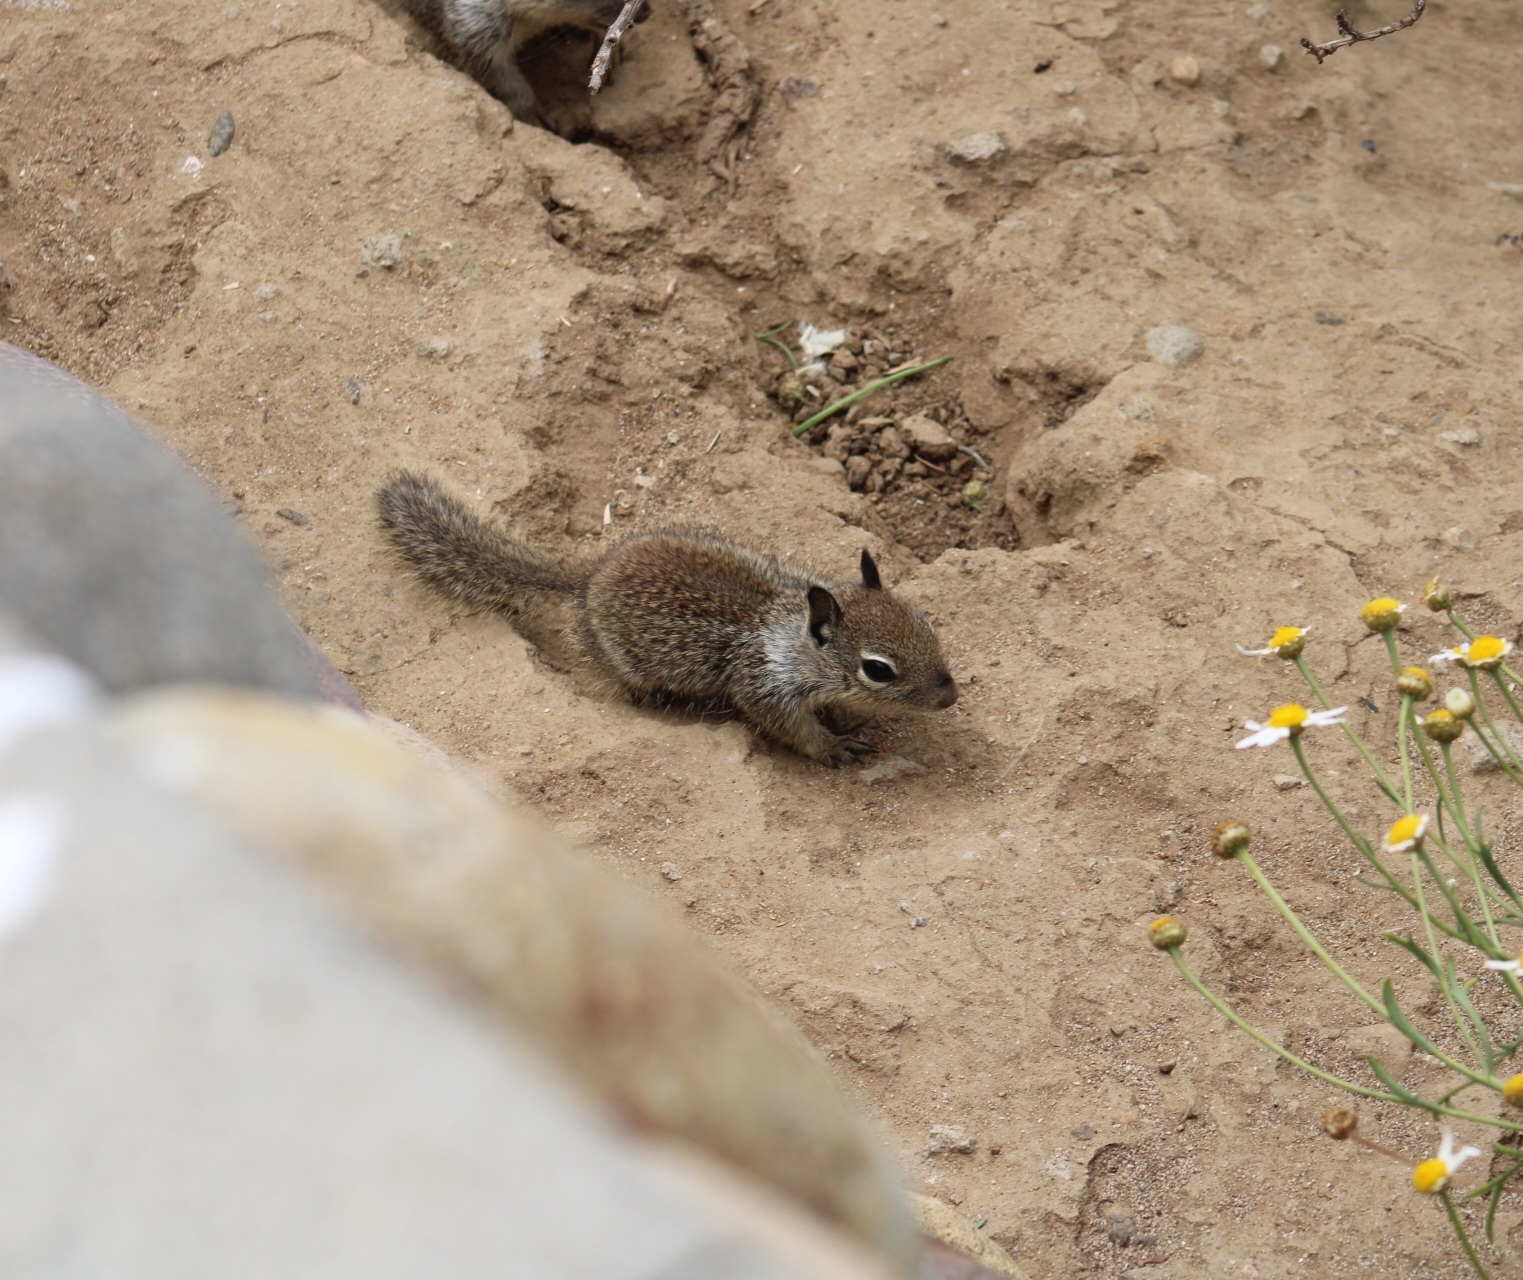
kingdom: Animalia
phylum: Chordata
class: Mammalia
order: Rodentia
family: Sciuridae
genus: Otospermophilus
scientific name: Otospermophilus beecheyi
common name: California ground squirrel
